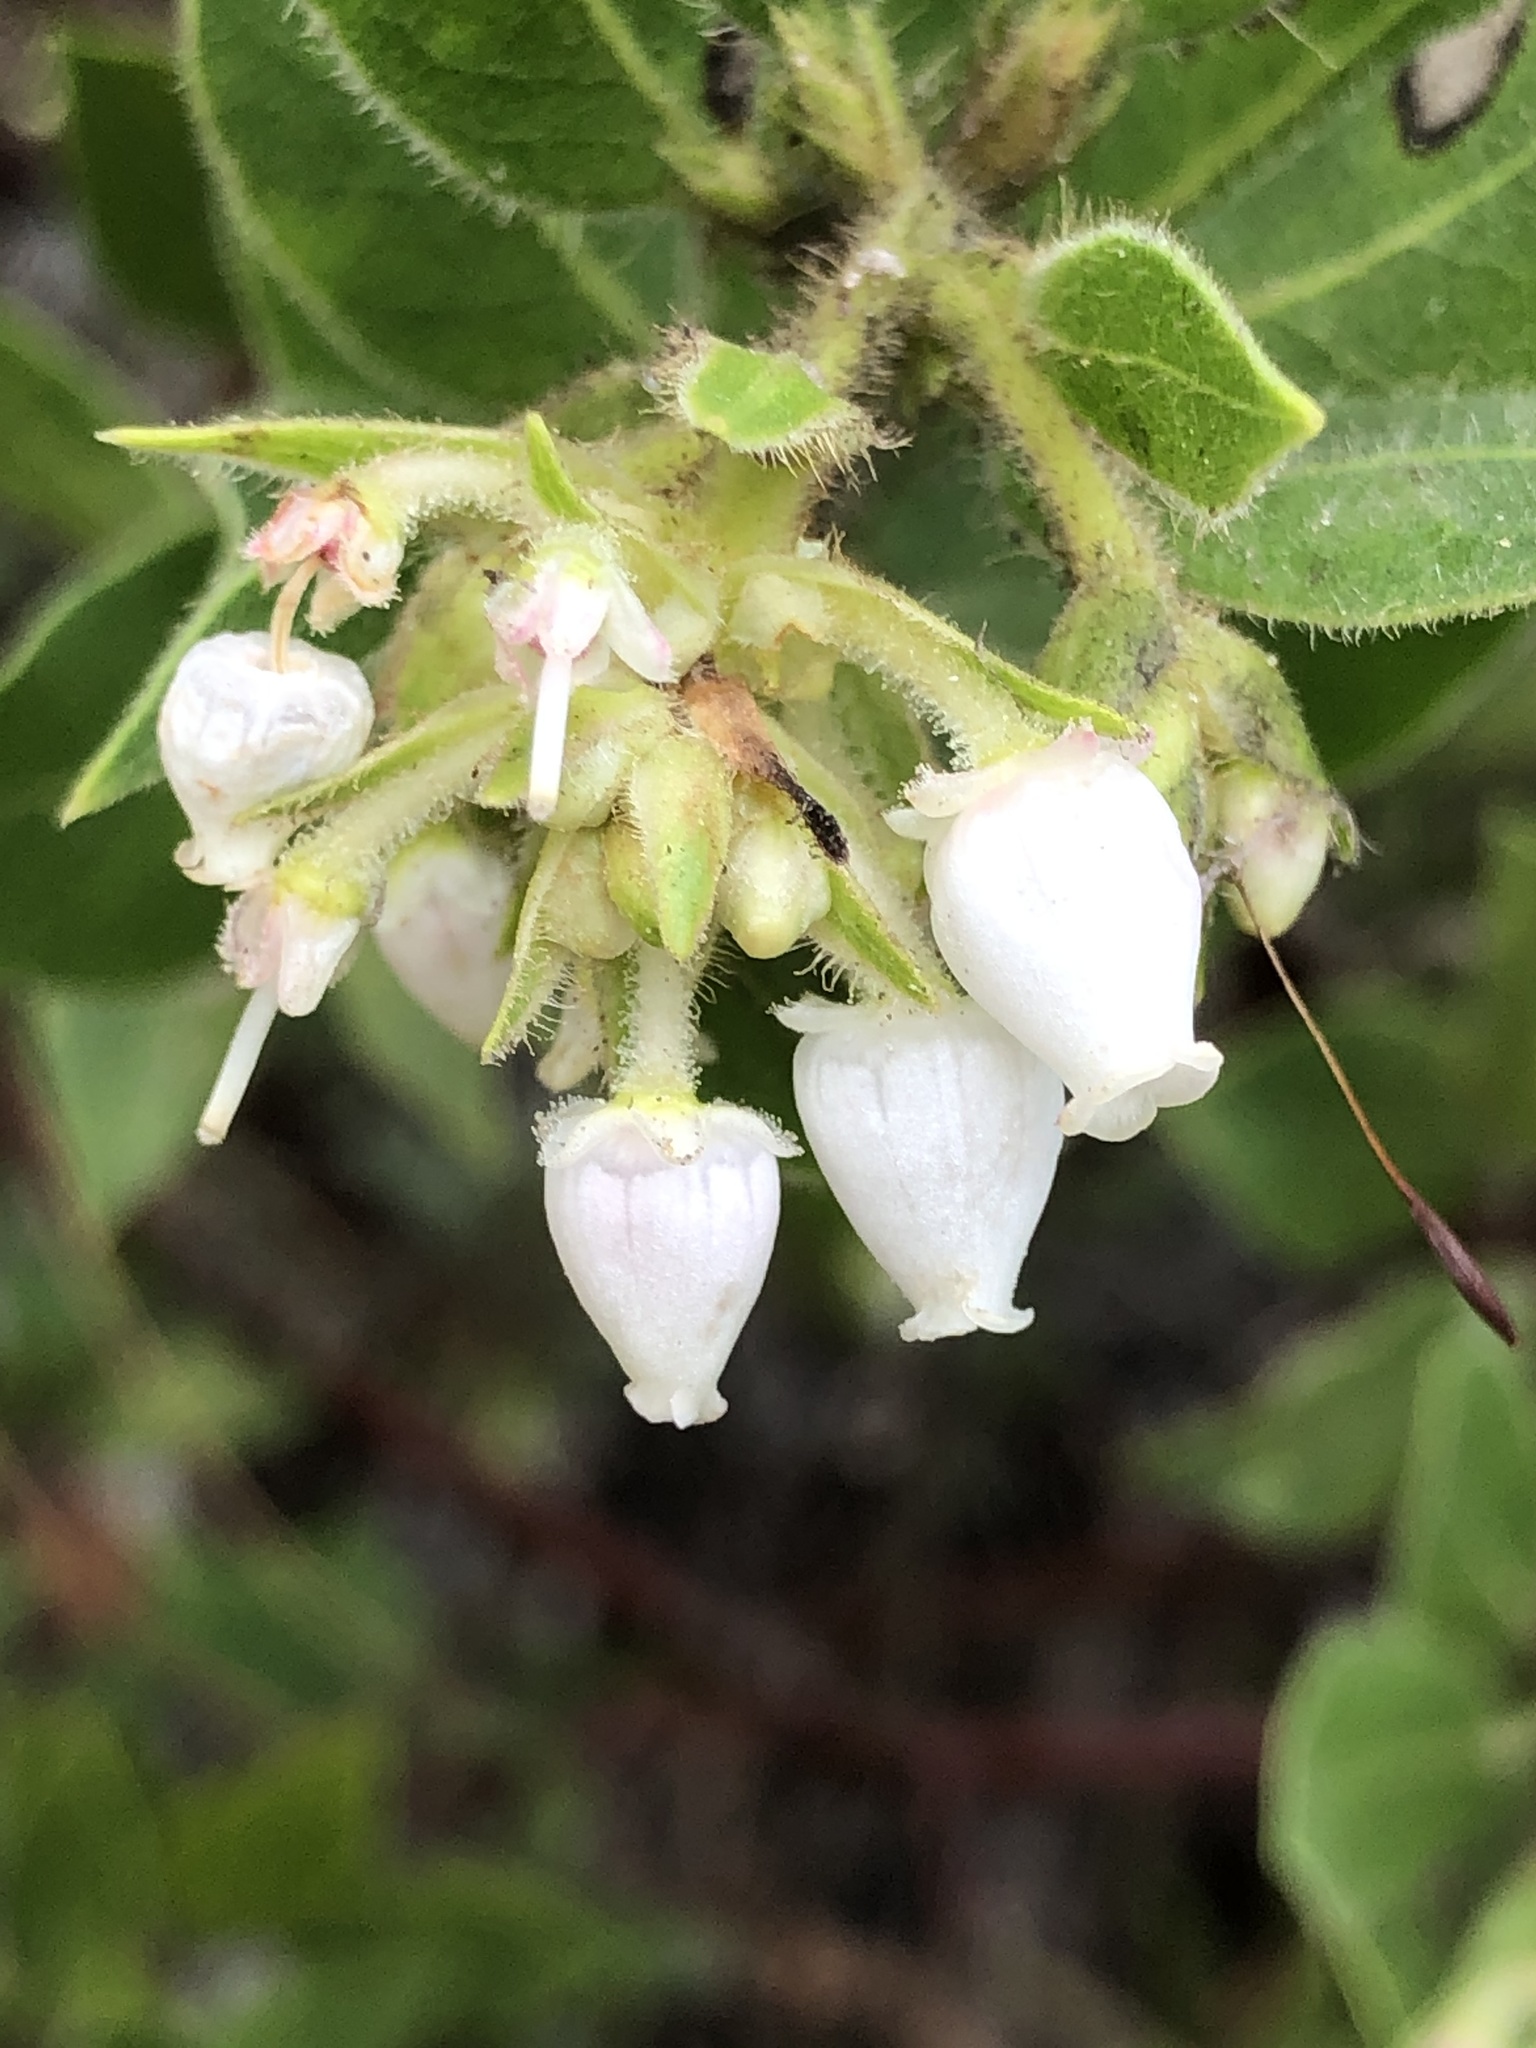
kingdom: Plantae
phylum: Tracheophyta
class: Magnoliopsida
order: Ericales
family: Ericaceae
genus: Arctostaphylos
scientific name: Arctostaphylos virgata
